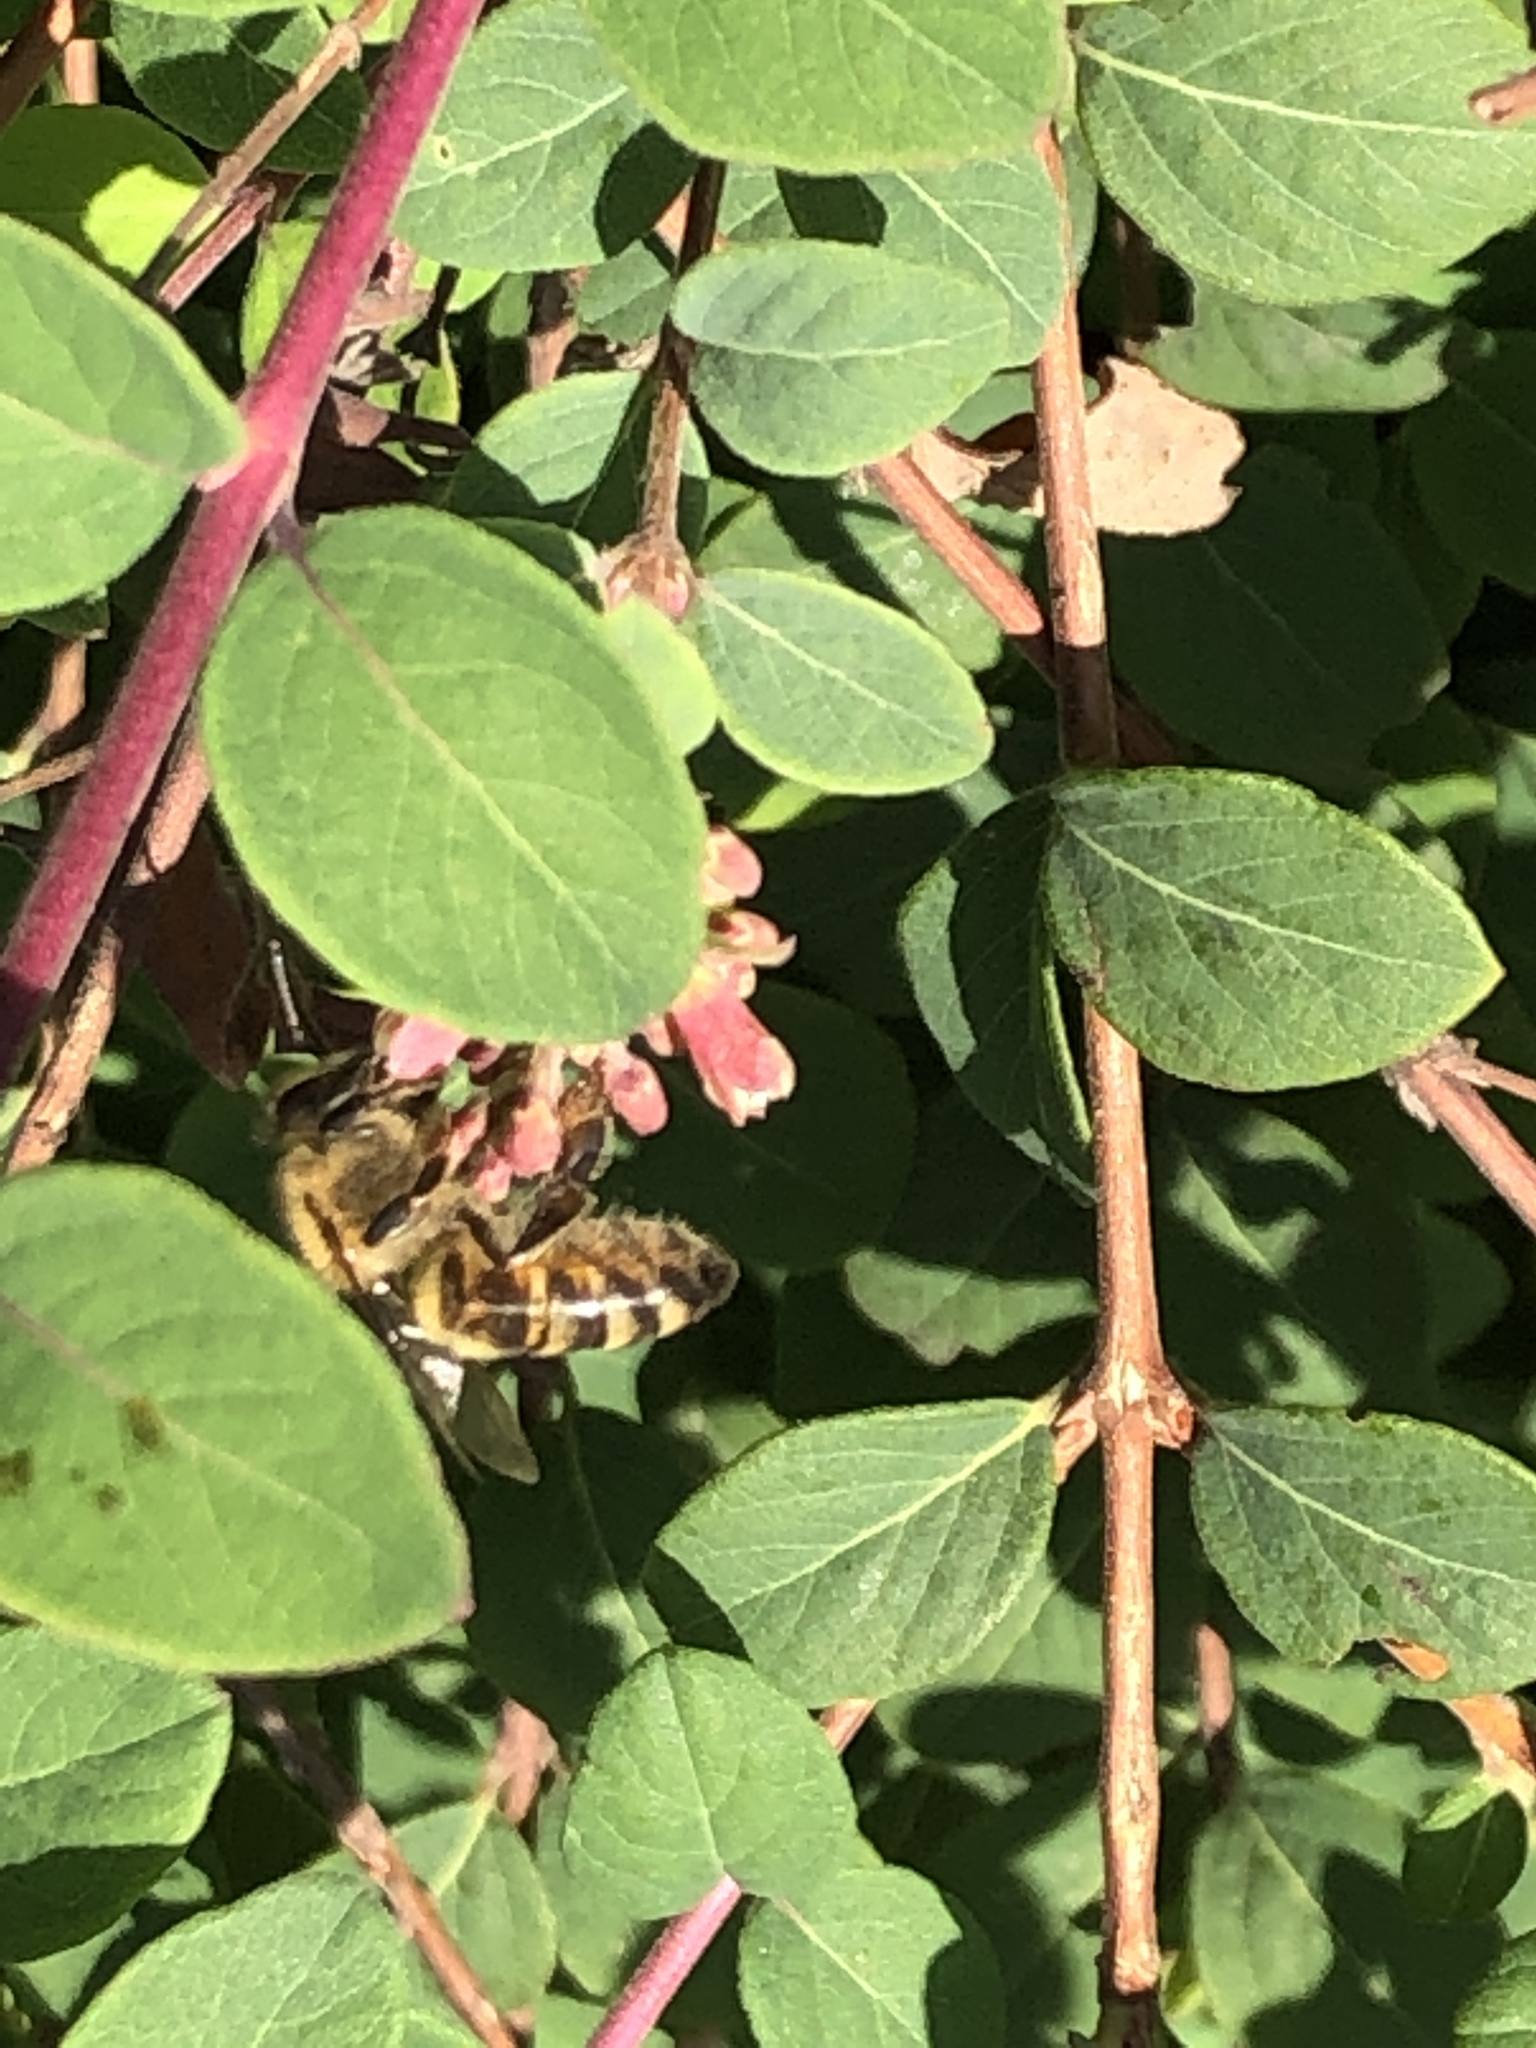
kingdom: Animalia
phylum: Arthropoda
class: Insecta
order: Hymenoptera
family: Apidae
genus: Apis
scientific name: Apis mellifera
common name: Honey bee
